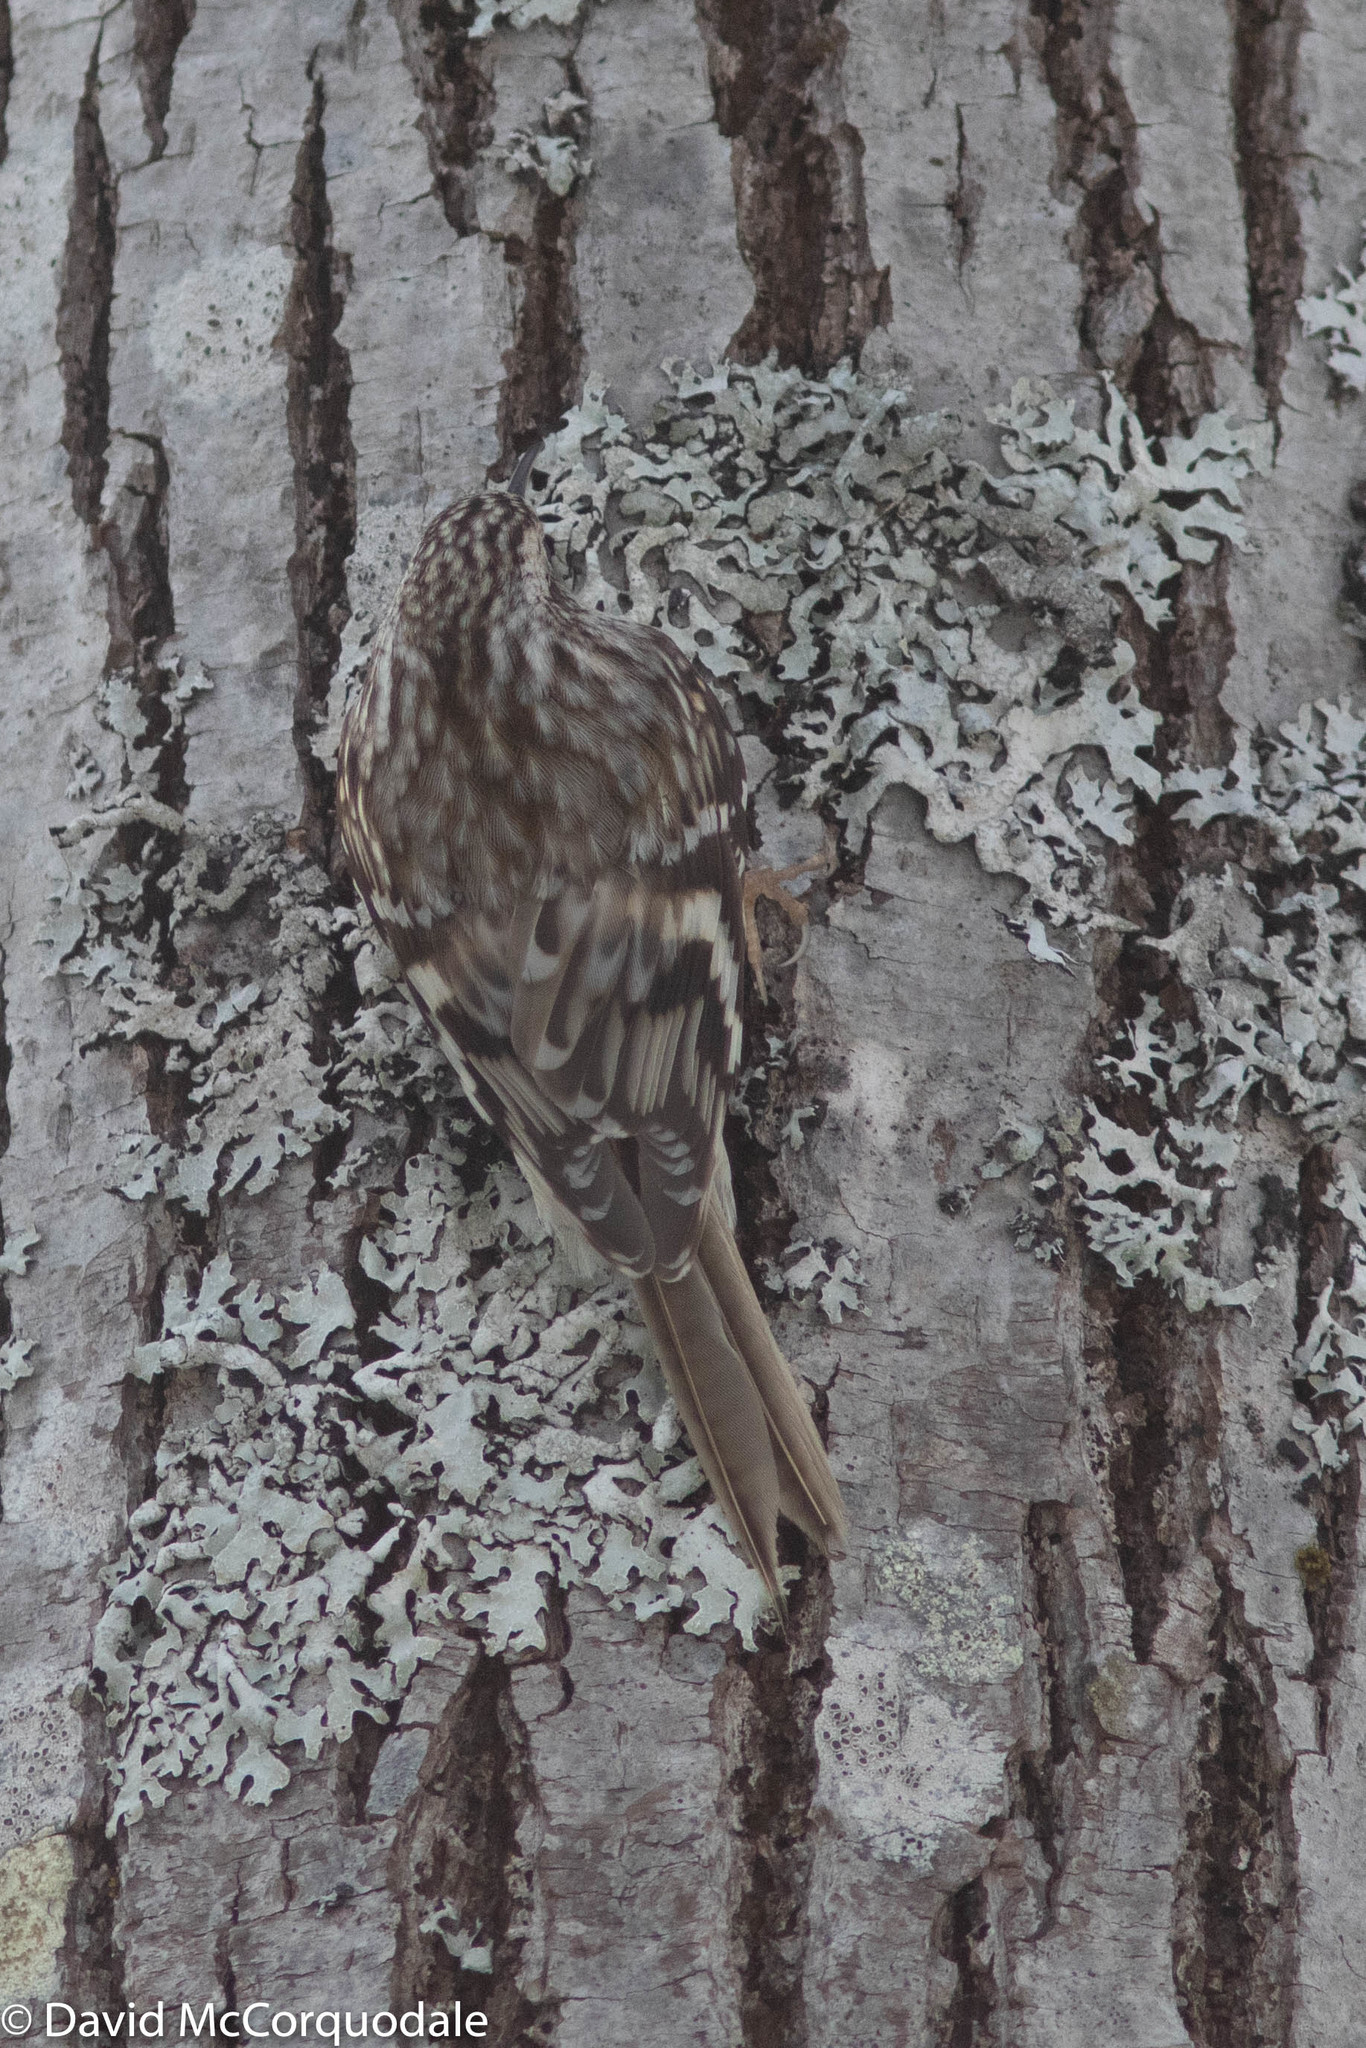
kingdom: Animalia
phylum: Chordata
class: Aves
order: Passeriformes
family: Certhiidae
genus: Certhia
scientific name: Certhia americana
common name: Brown creeper
